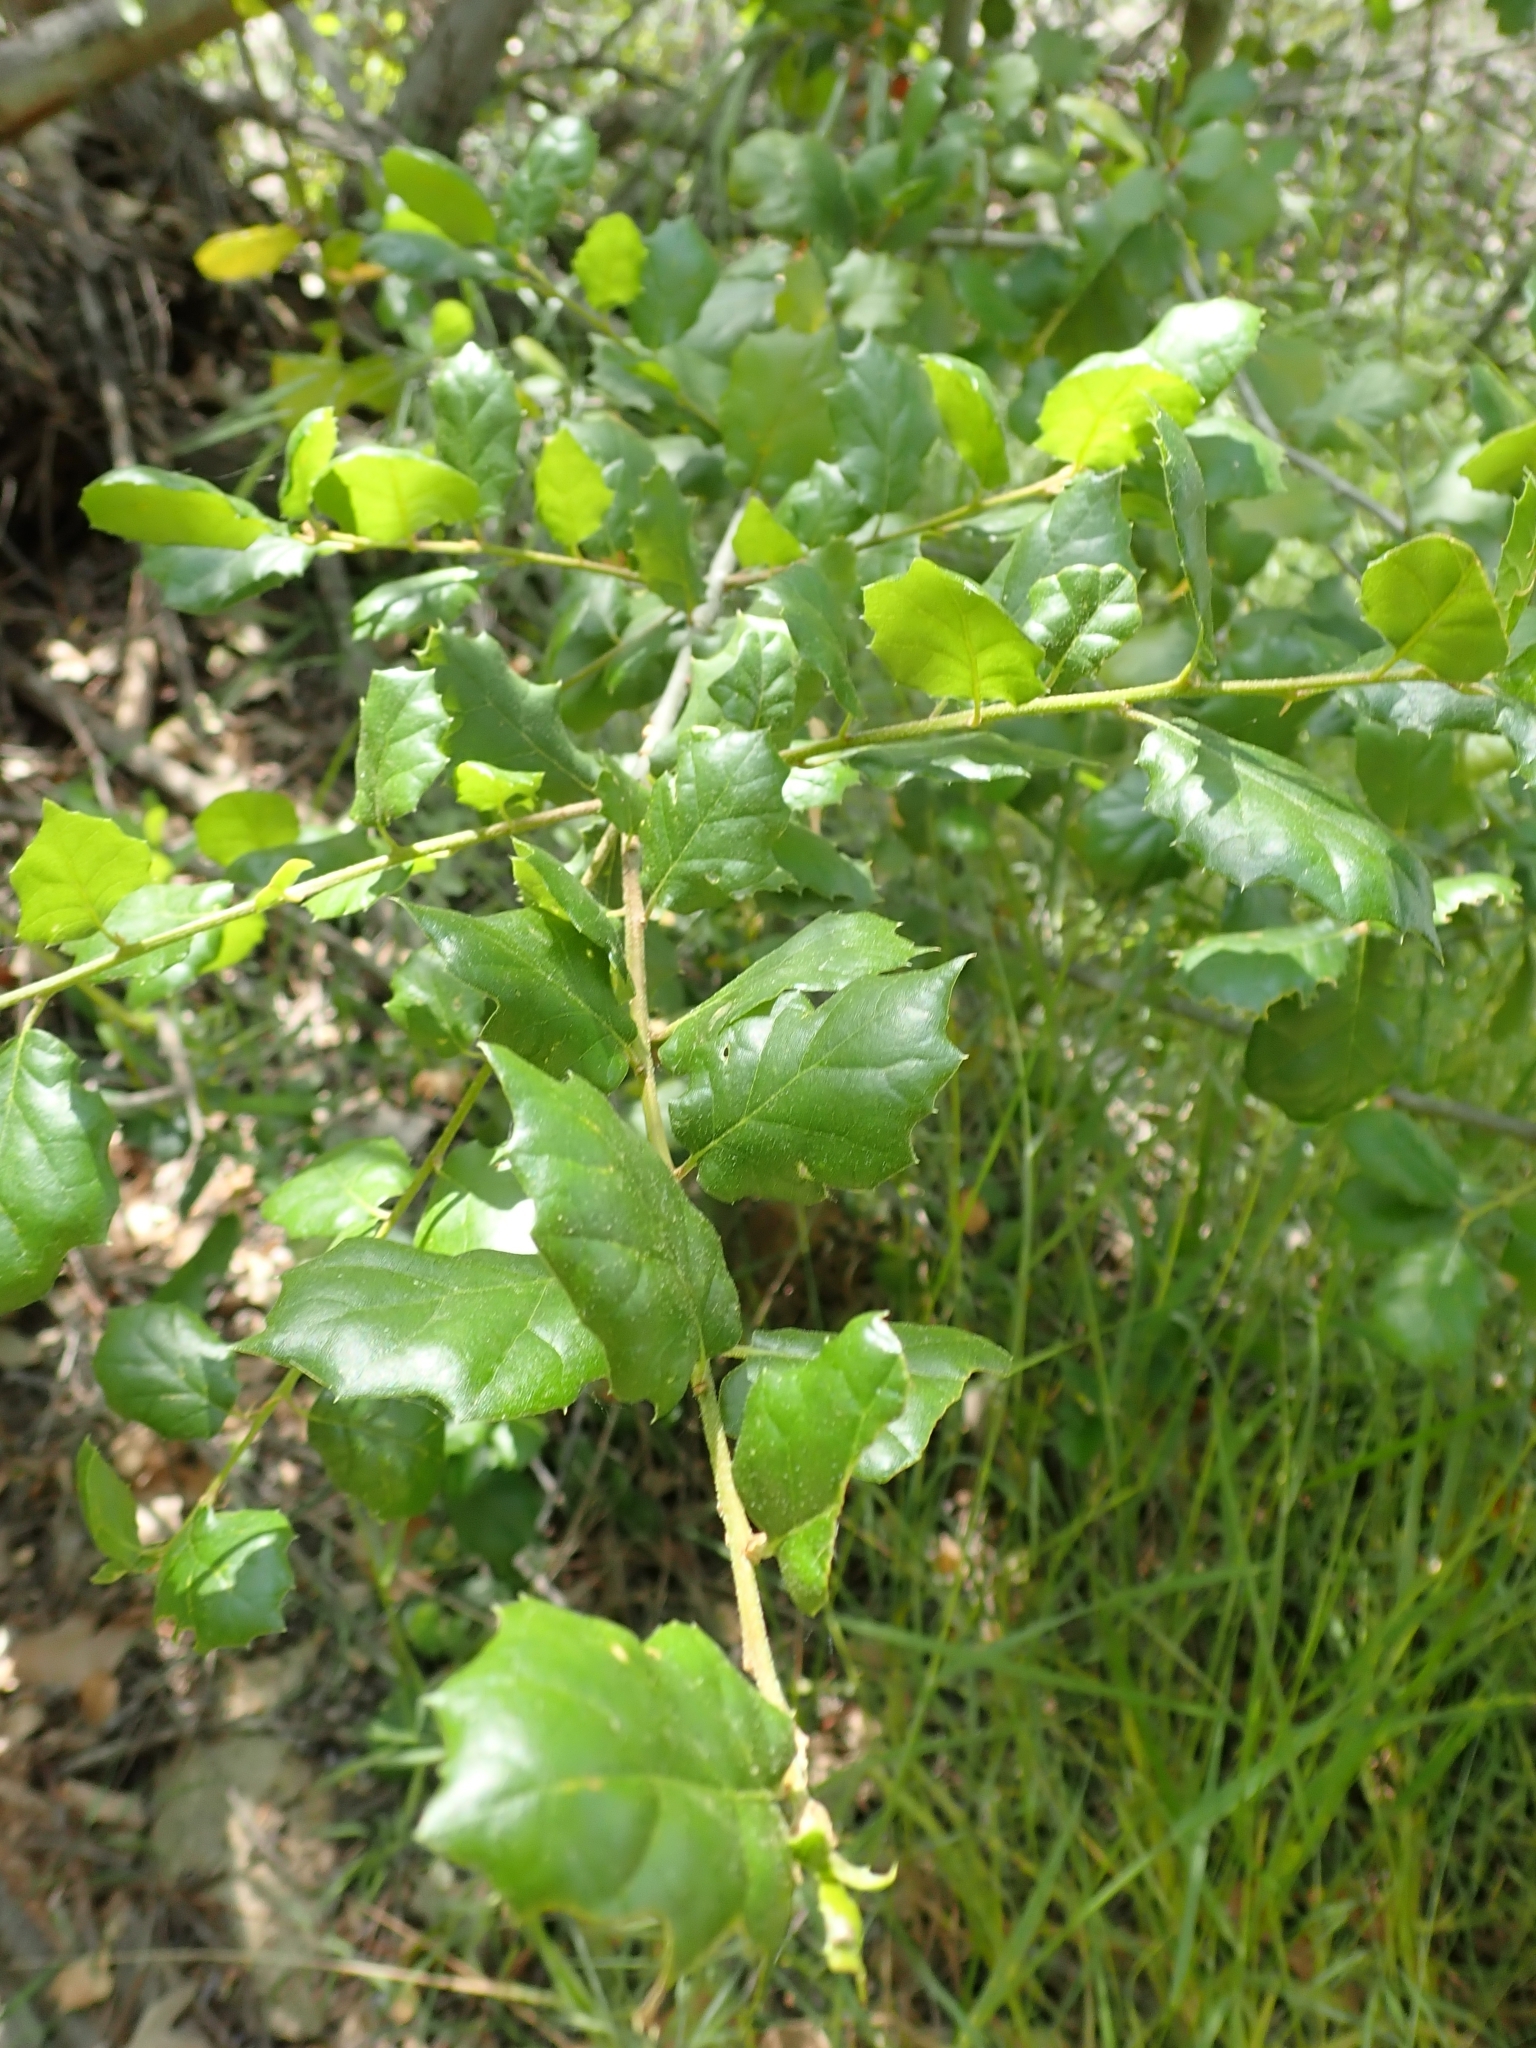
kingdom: Plantae
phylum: Tracheophyta
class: Magnoliopsida
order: Fagales
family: Fagaceae
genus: Quercus
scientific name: Quercus agrifolia
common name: California live oak
